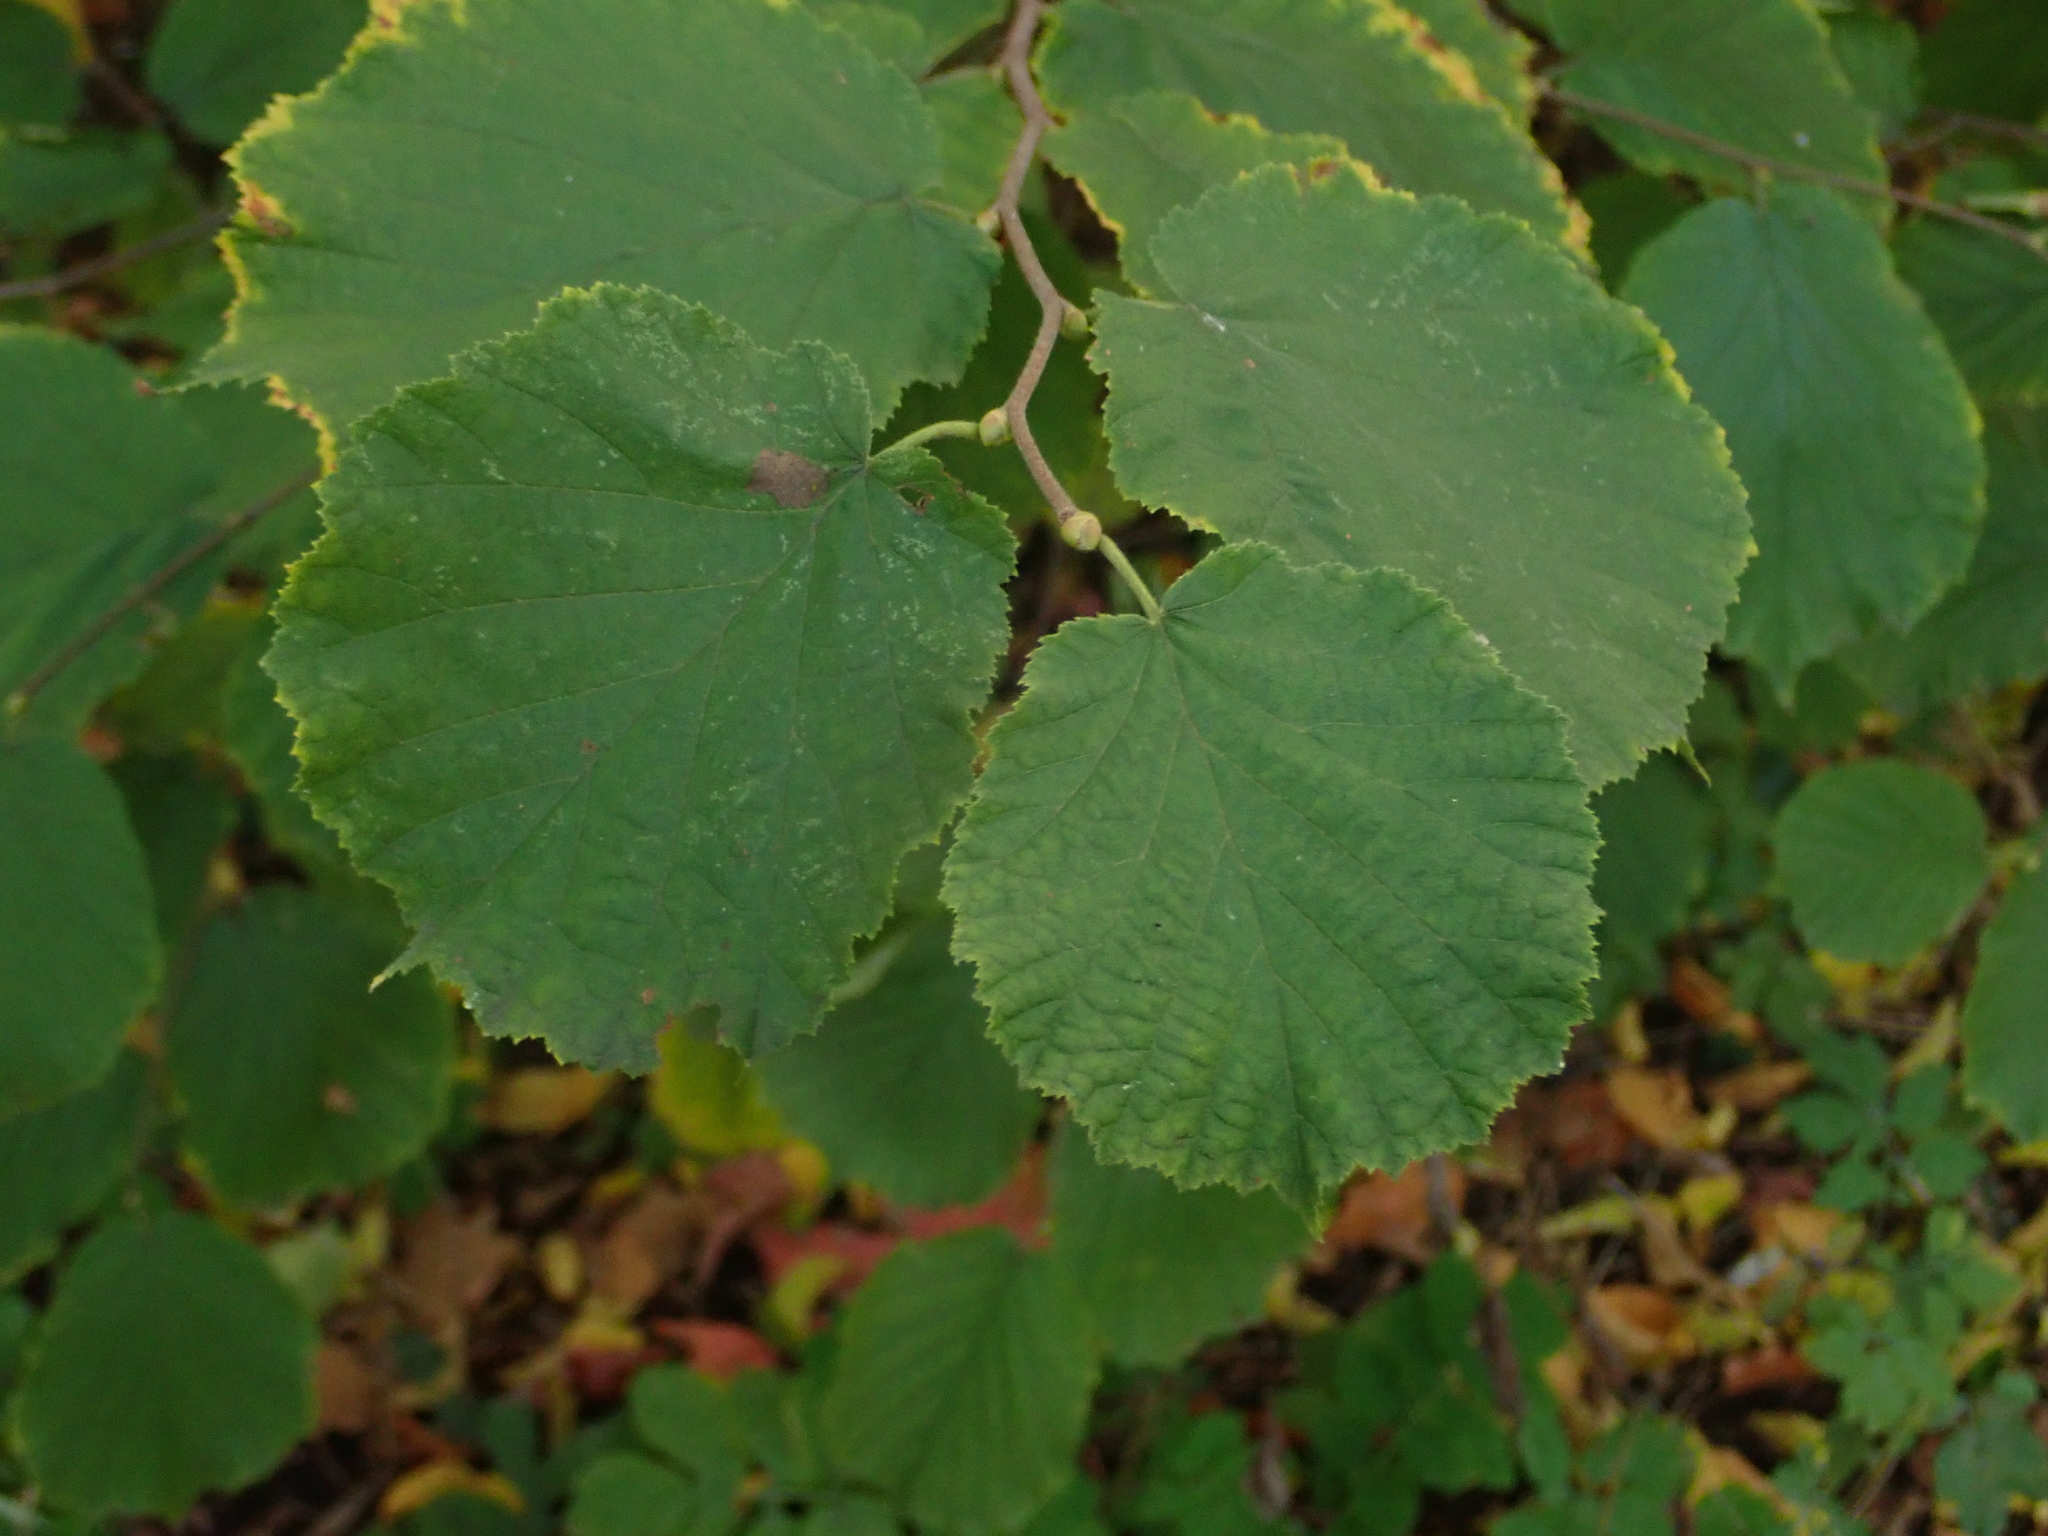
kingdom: Plantae
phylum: Tracheophyta
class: Magnoliopsida
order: Fagales
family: Betulaceae
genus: Corylus
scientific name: Corylus avellana
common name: European hazel
